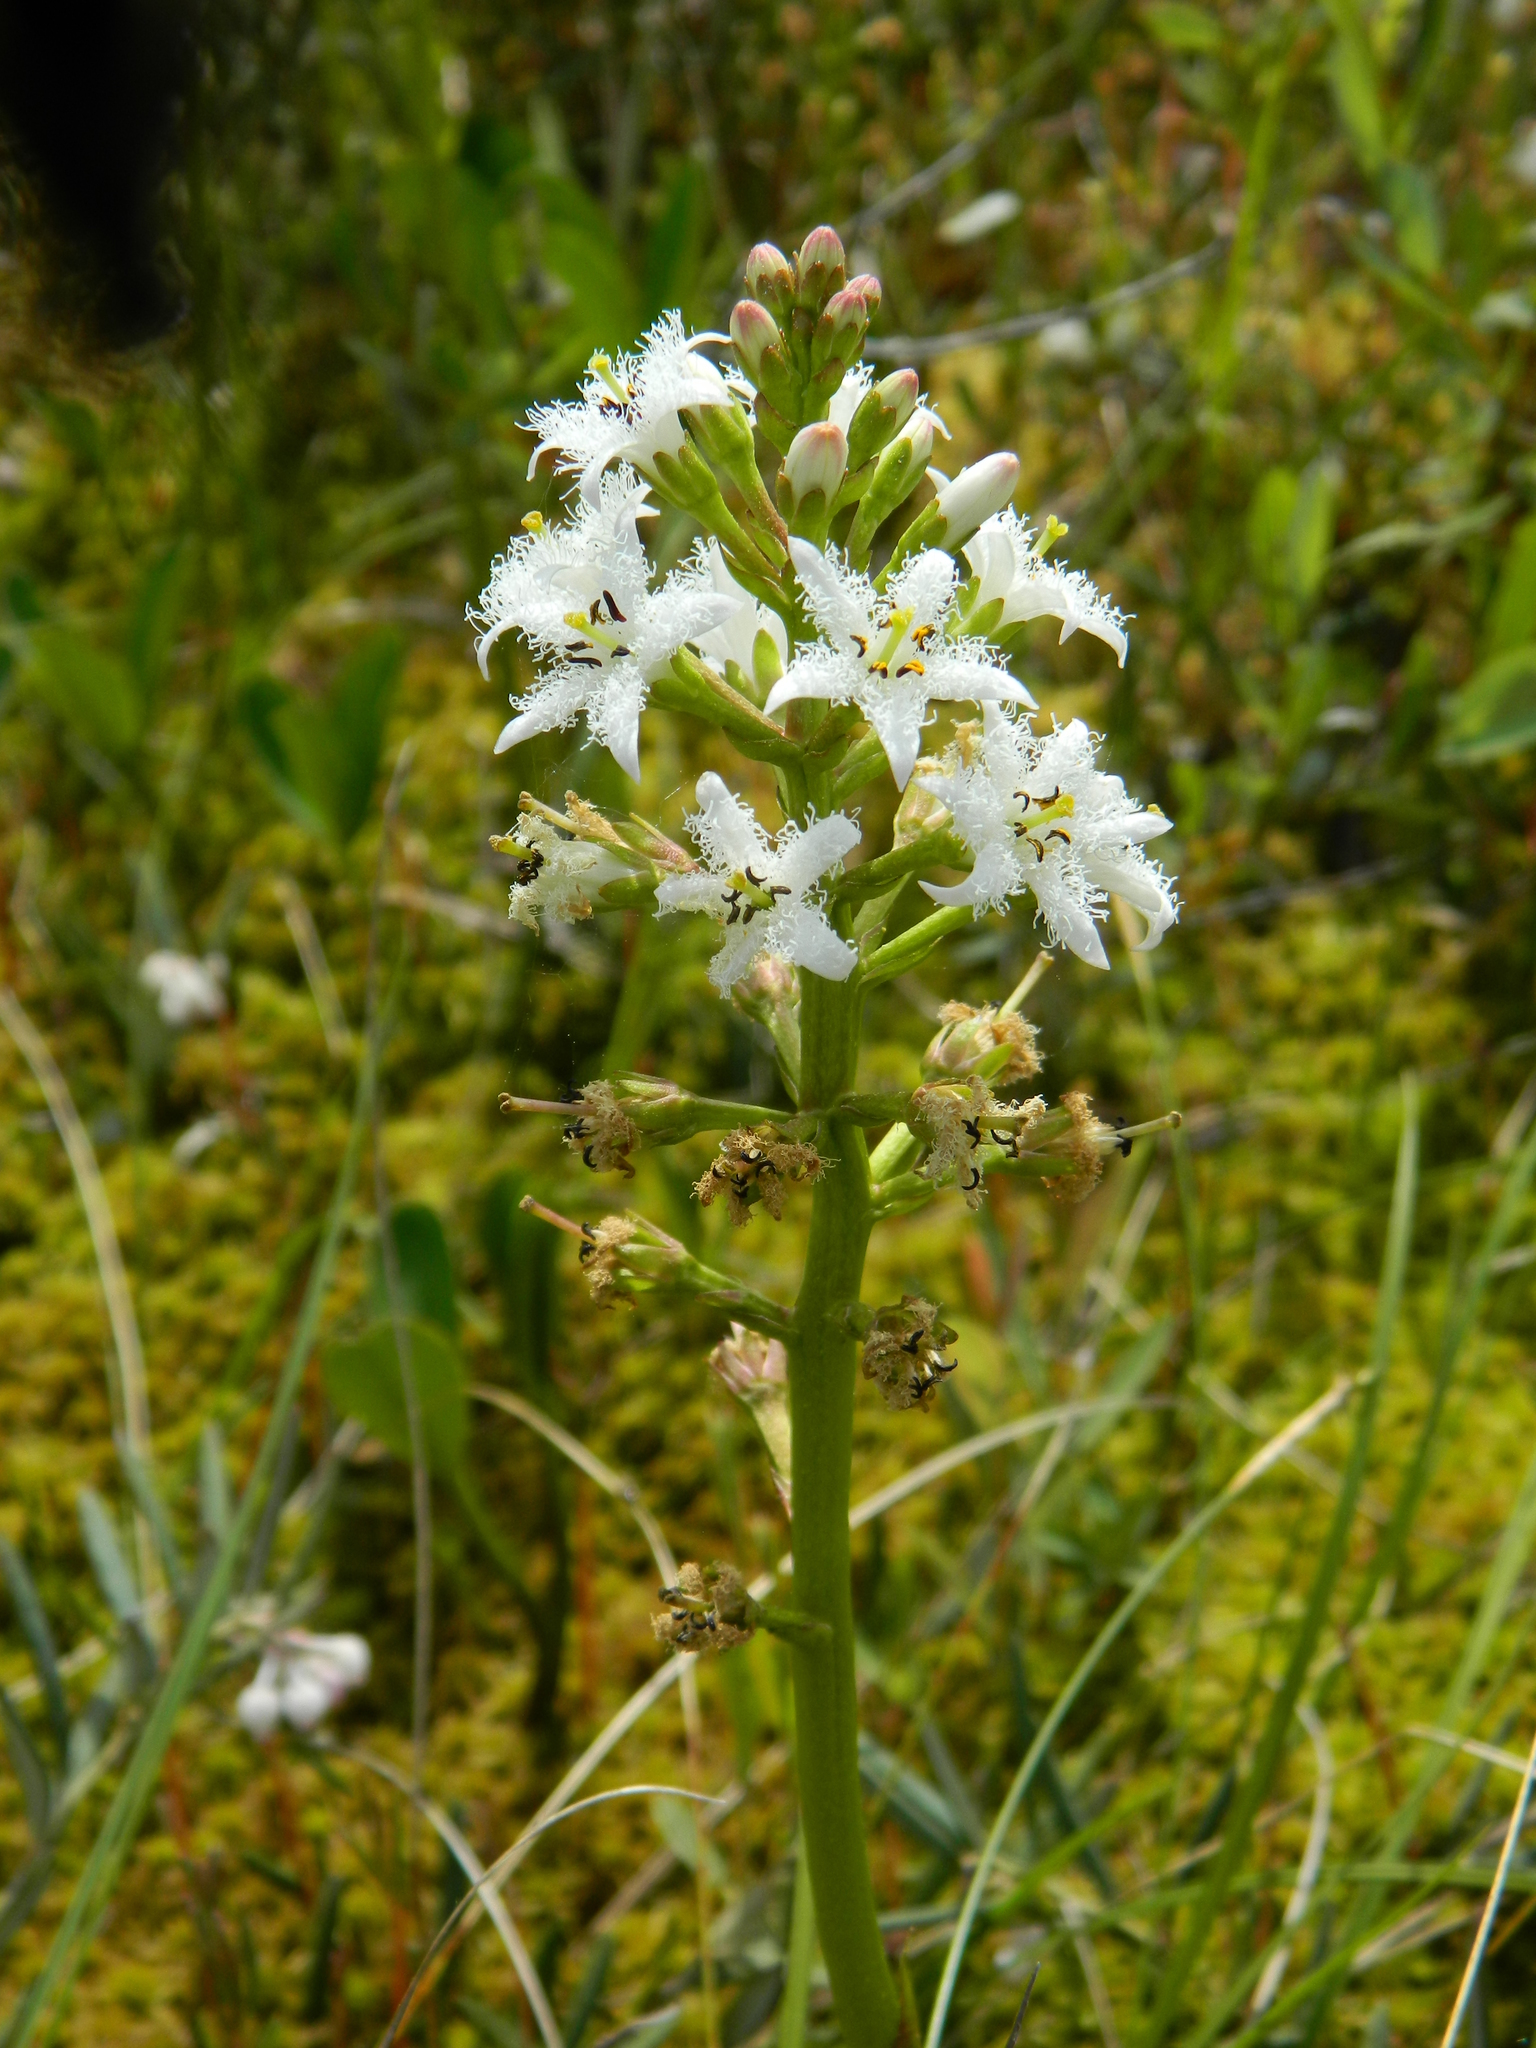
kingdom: Plantae
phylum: Tracheophyta
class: Magnoliopsida
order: Asterales
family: Menyanthaceae
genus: Menyanthes
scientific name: Menyanthes trifoliata
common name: Bogbean
